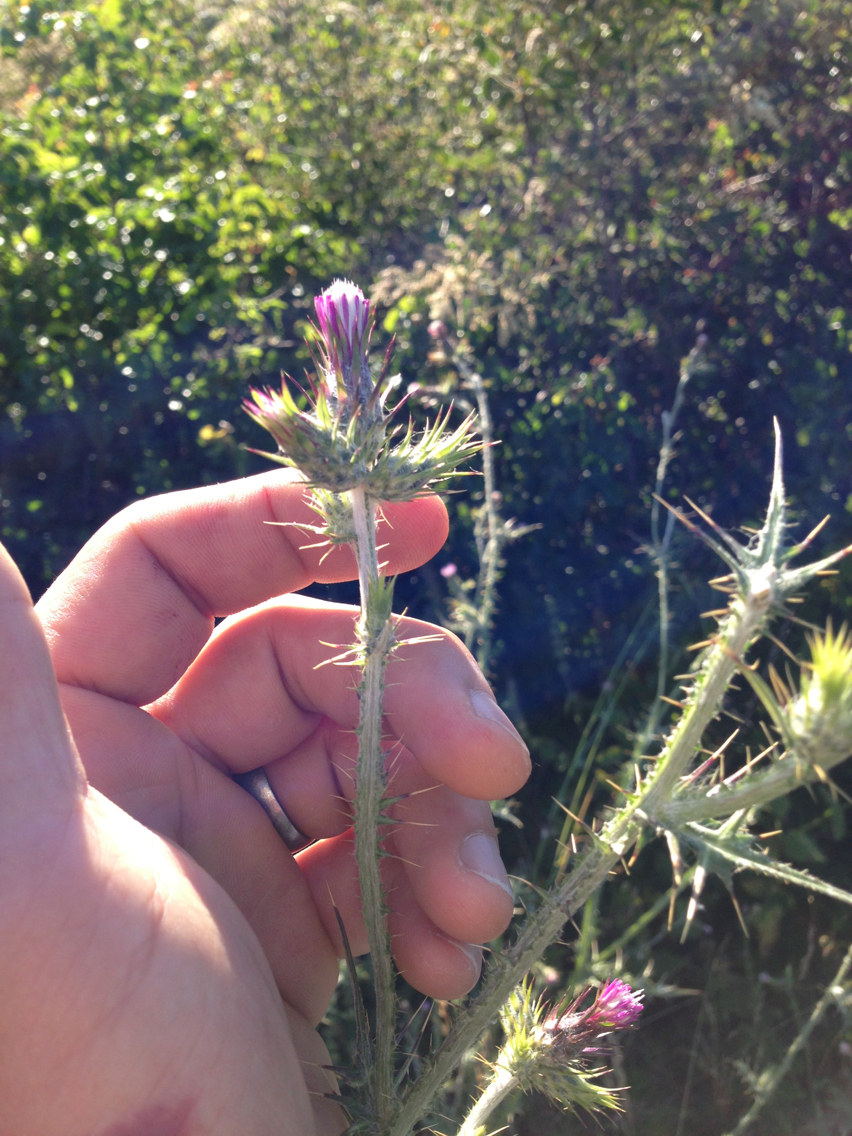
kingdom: Plantae
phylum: Tracheophyta
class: Magnoliopsida
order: Asterales
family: Asteraceae
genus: Carduus
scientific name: Carduus pycnocephalus
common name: Plymouth thistle
